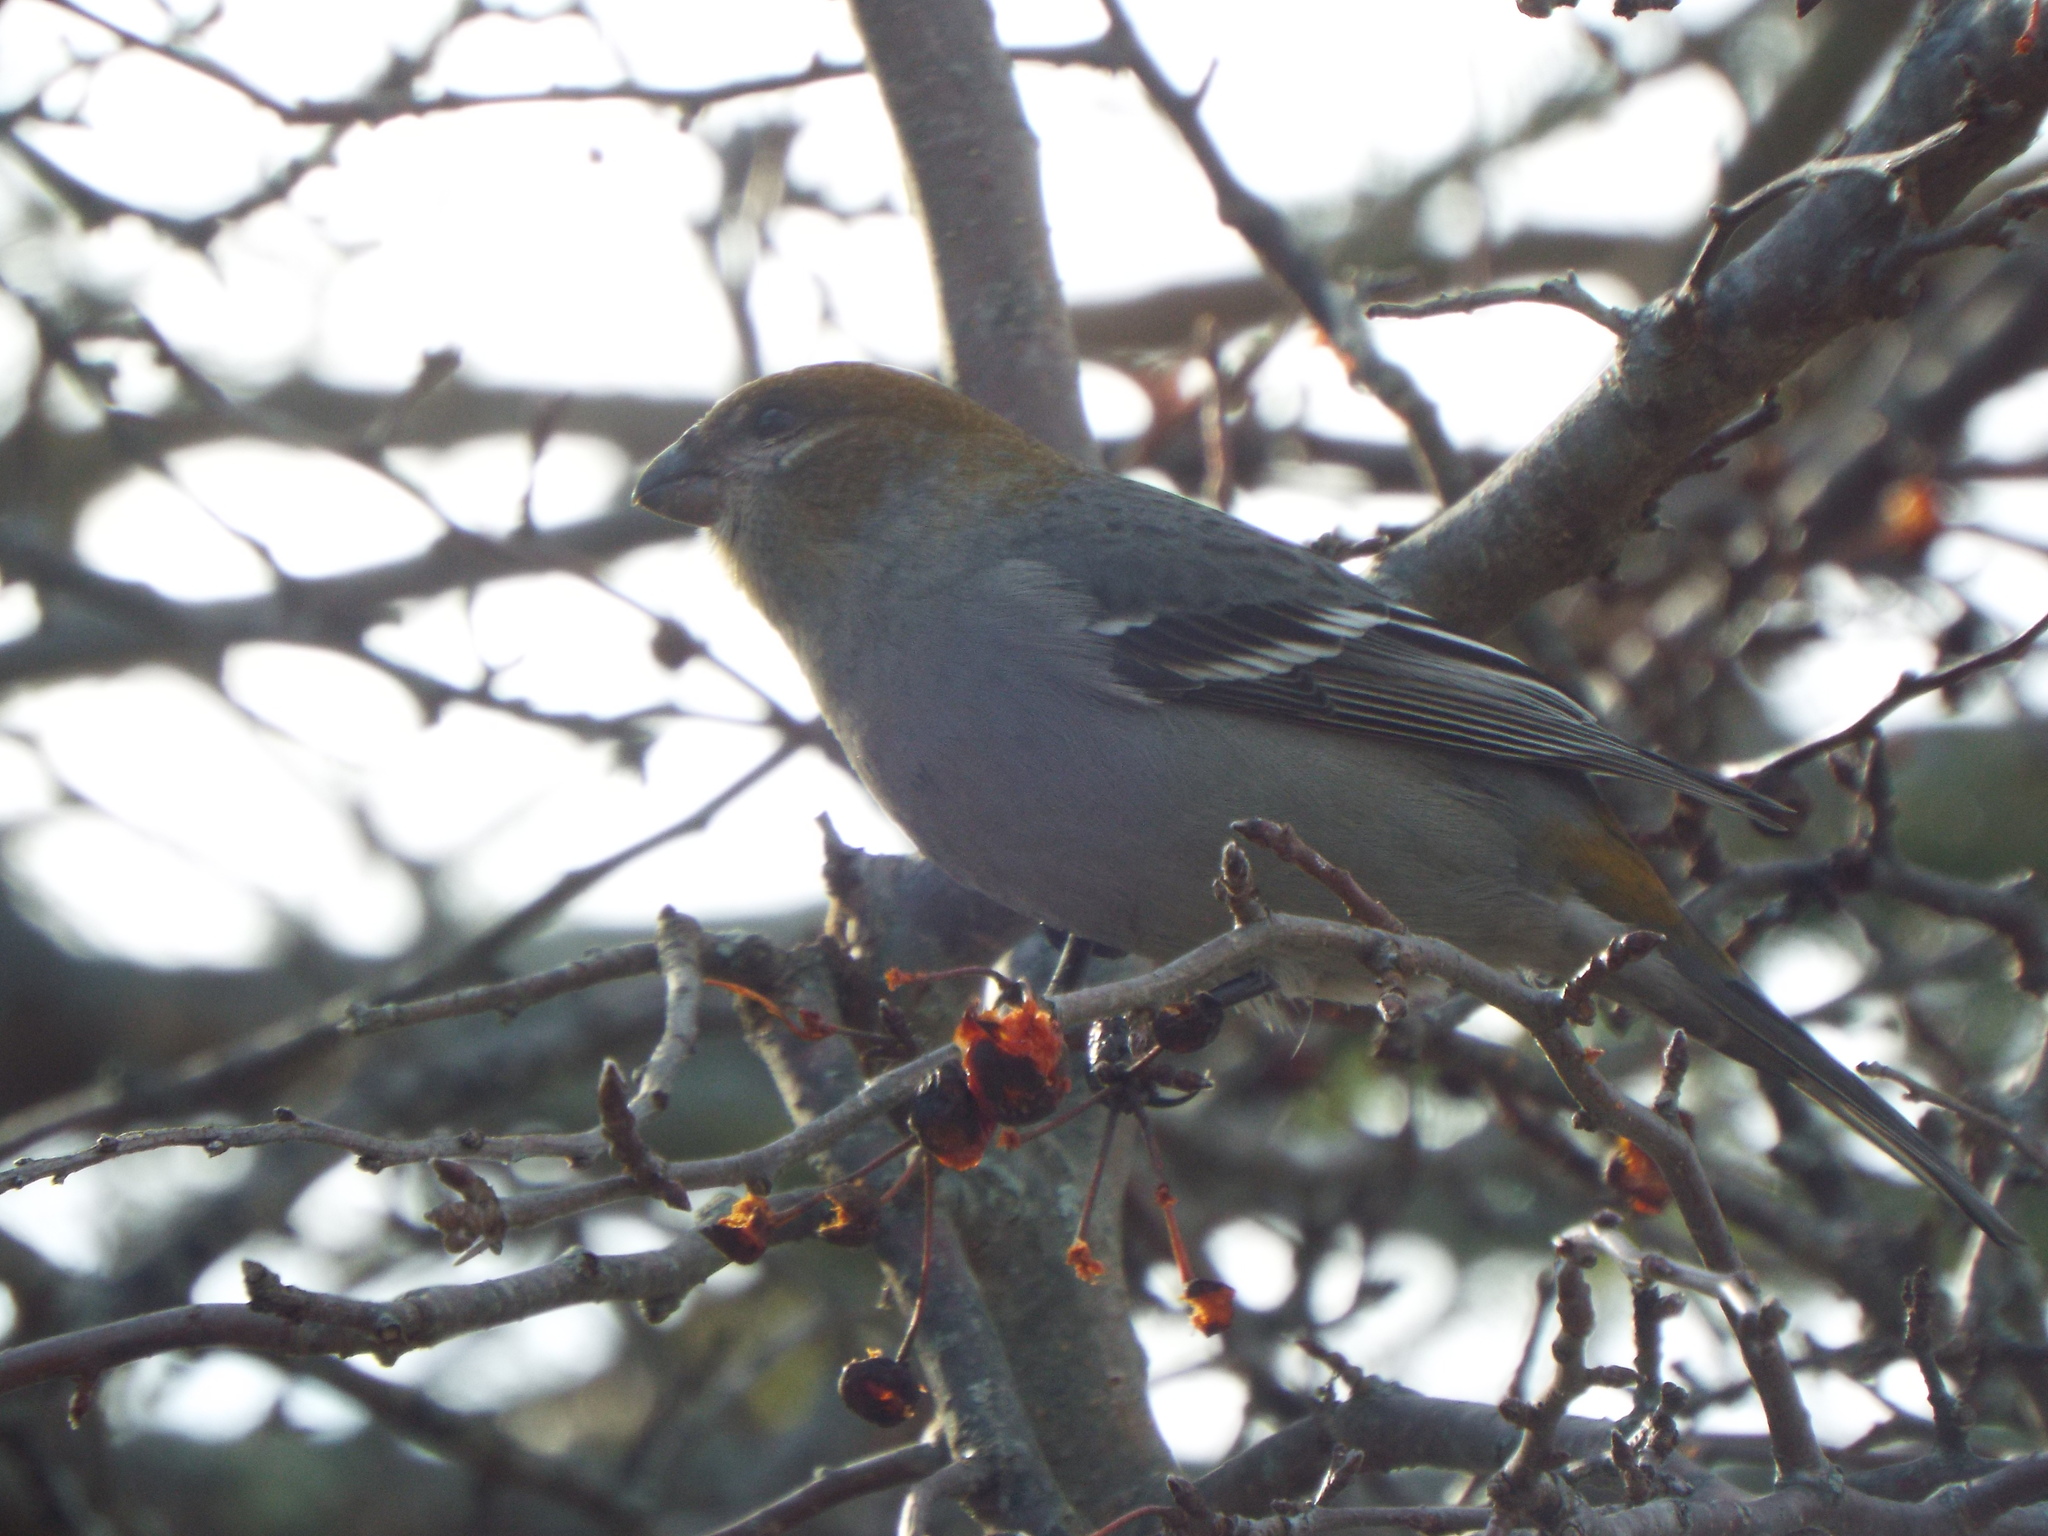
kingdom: Animalia
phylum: Chordata
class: Aves
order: Passeriformes
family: Fringillidae
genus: Pinicola
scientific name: Pinicola enucleator
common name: Pine grosbeak
